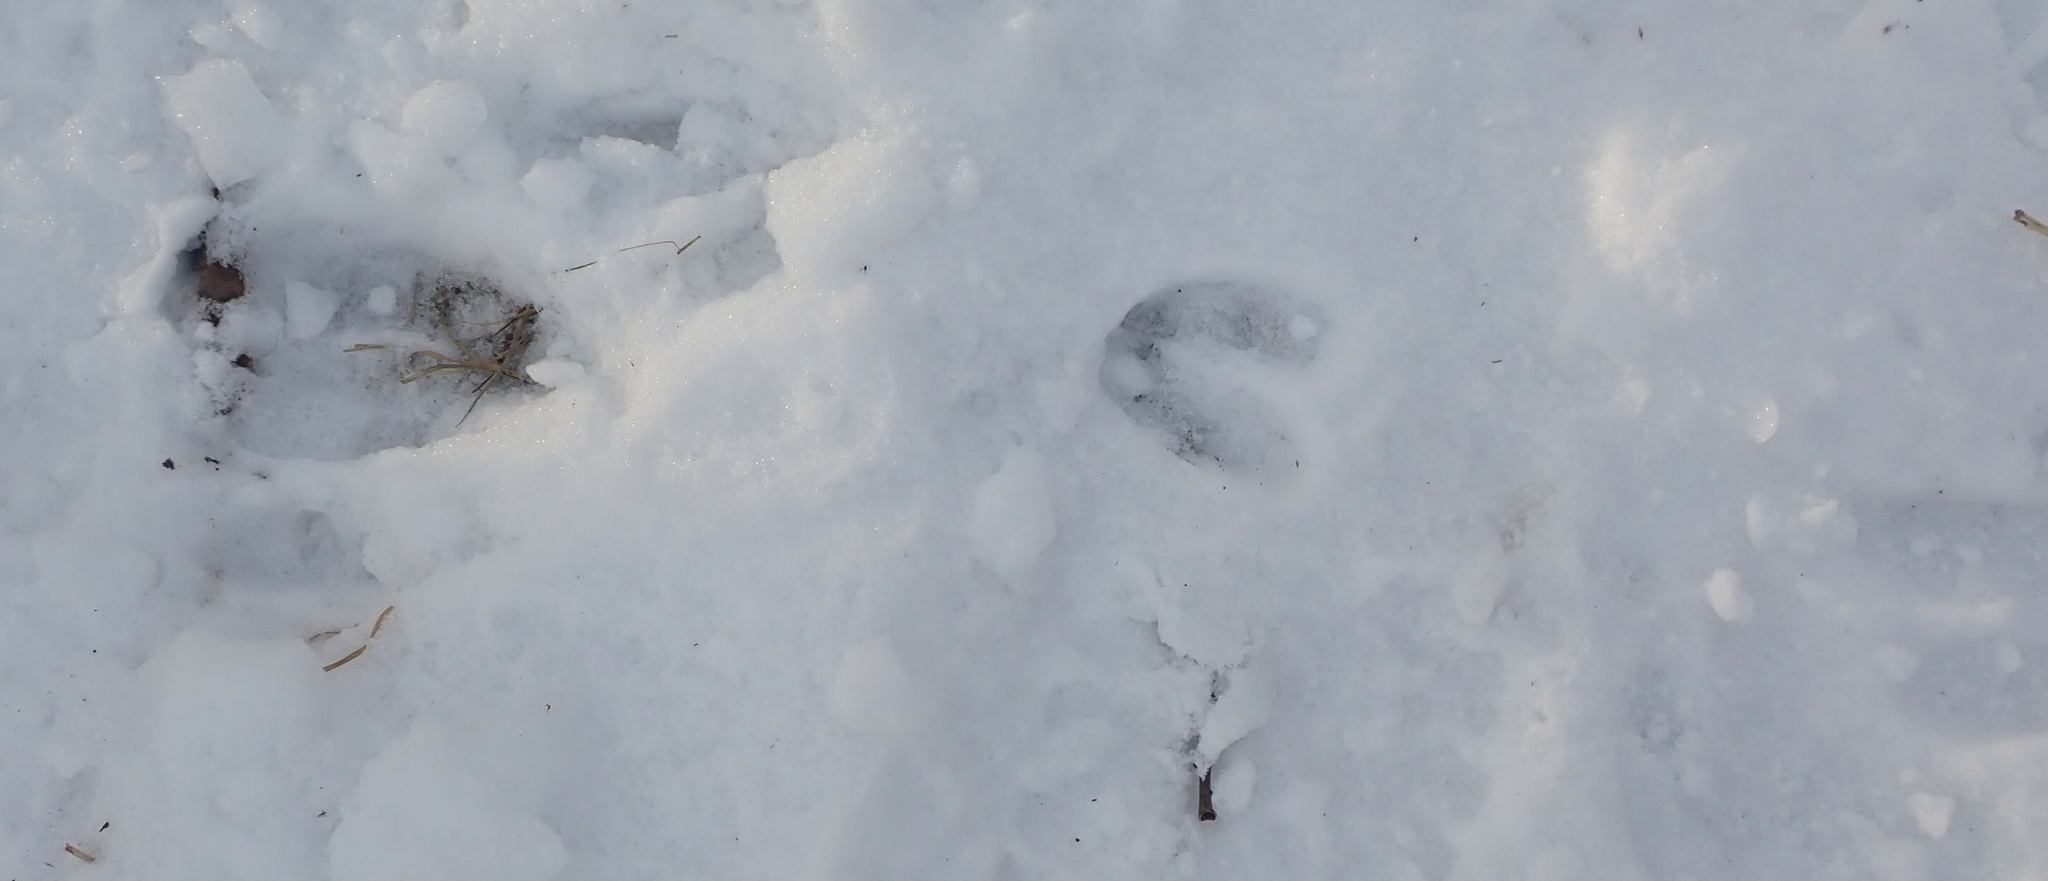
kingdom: Animalia
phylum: Chordata
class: Mammalia
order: Artiodactyla
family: Cervidae
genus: Odocoileus
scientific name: Odocoileus virginianus
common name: White-tailed deer
